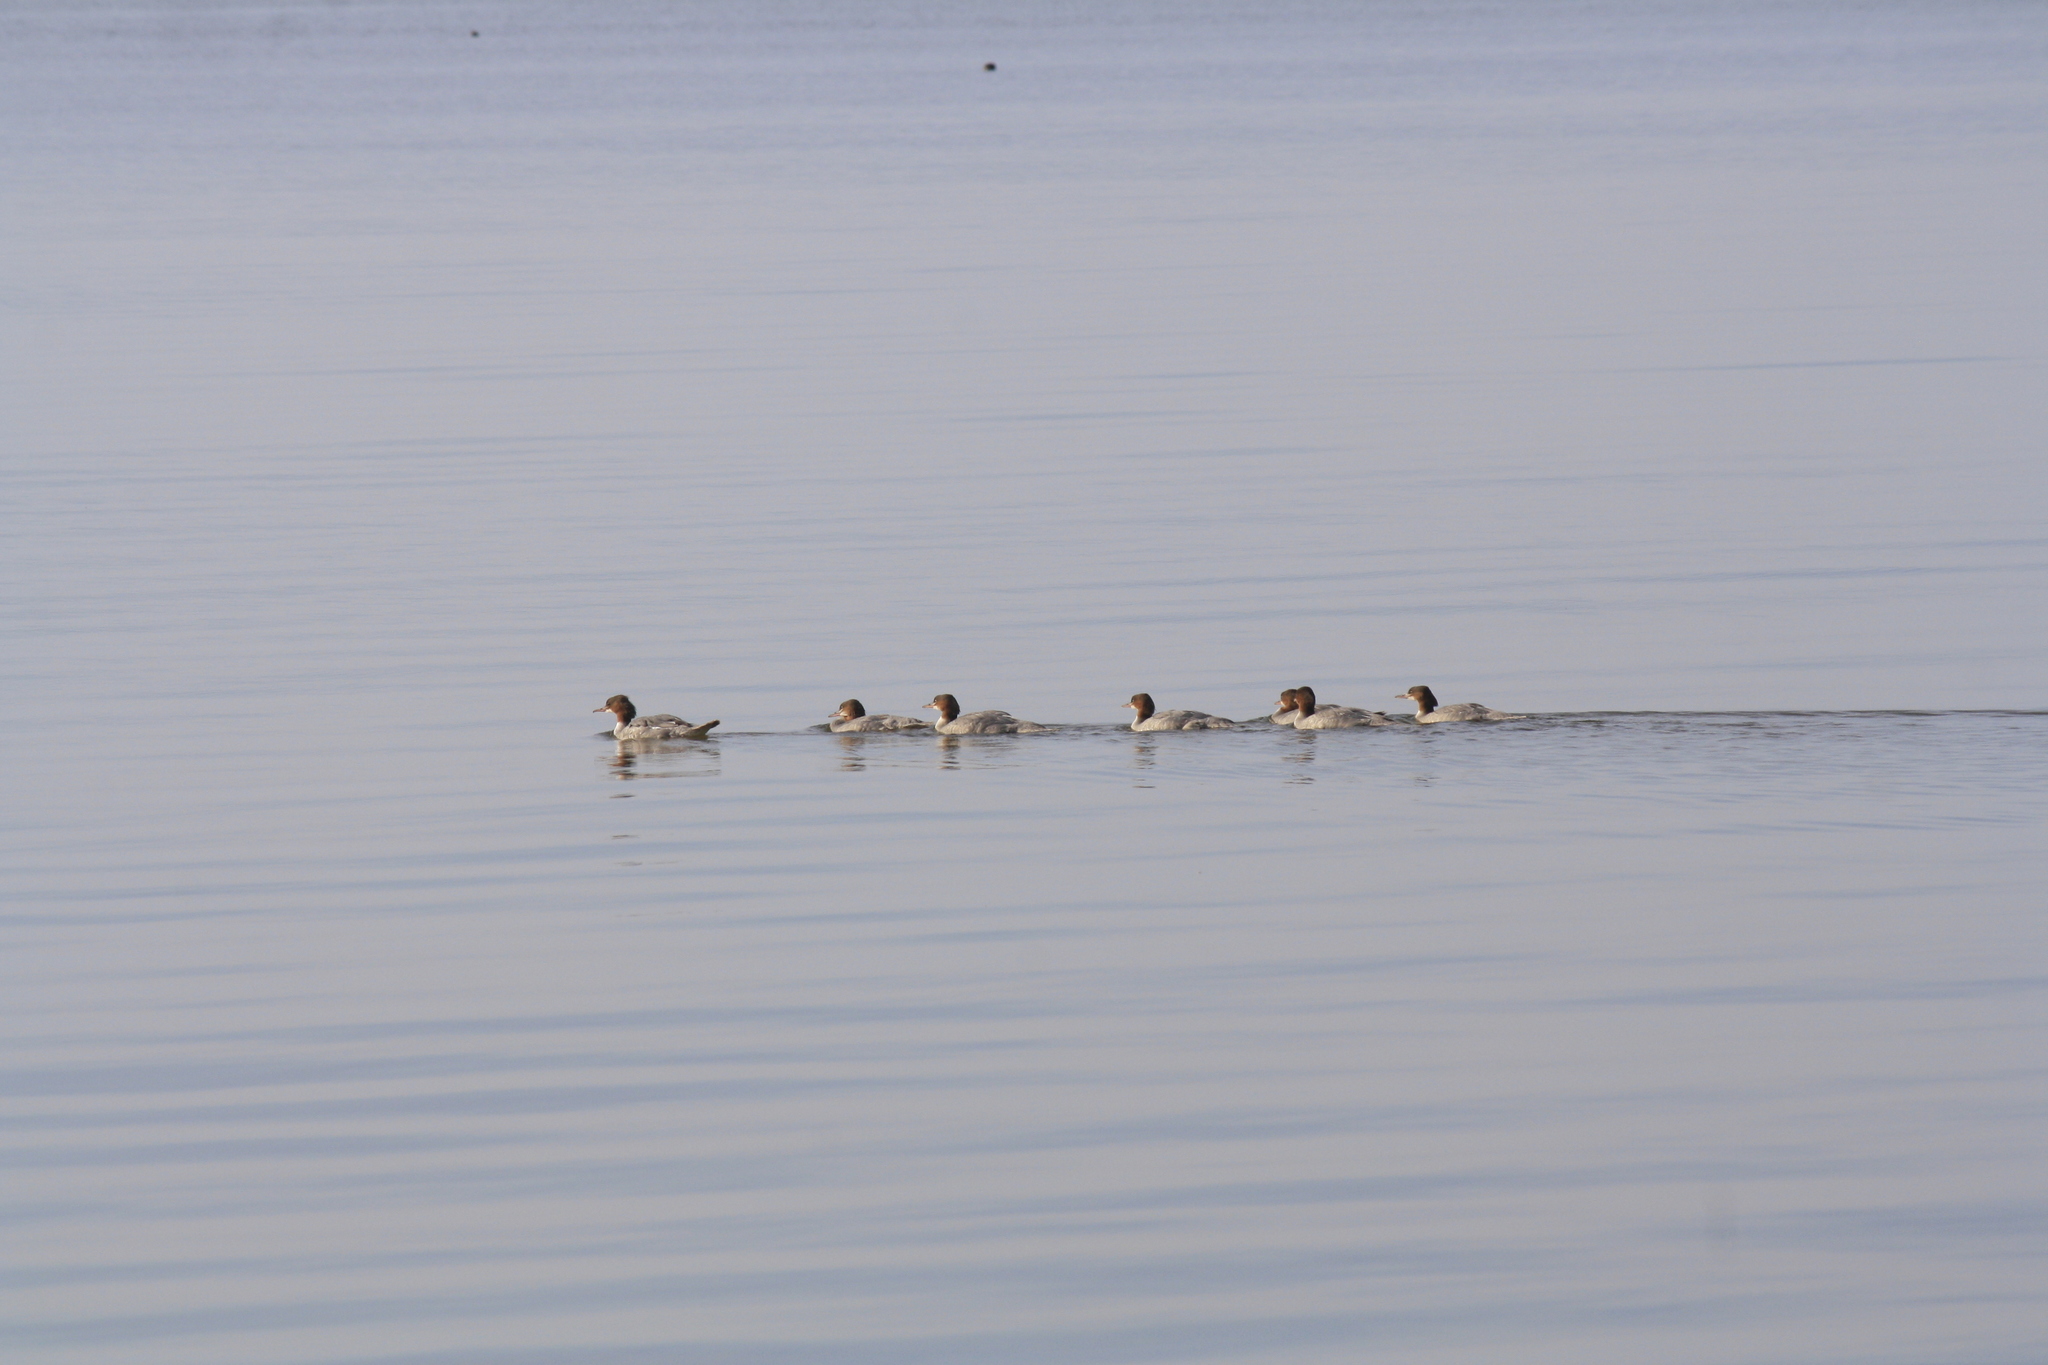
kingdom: Animalia
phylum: Chordata
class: Aves
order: Anseriformes
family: Anatidae
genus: Mergus
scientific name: Mergus merganser
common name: Common merganser
